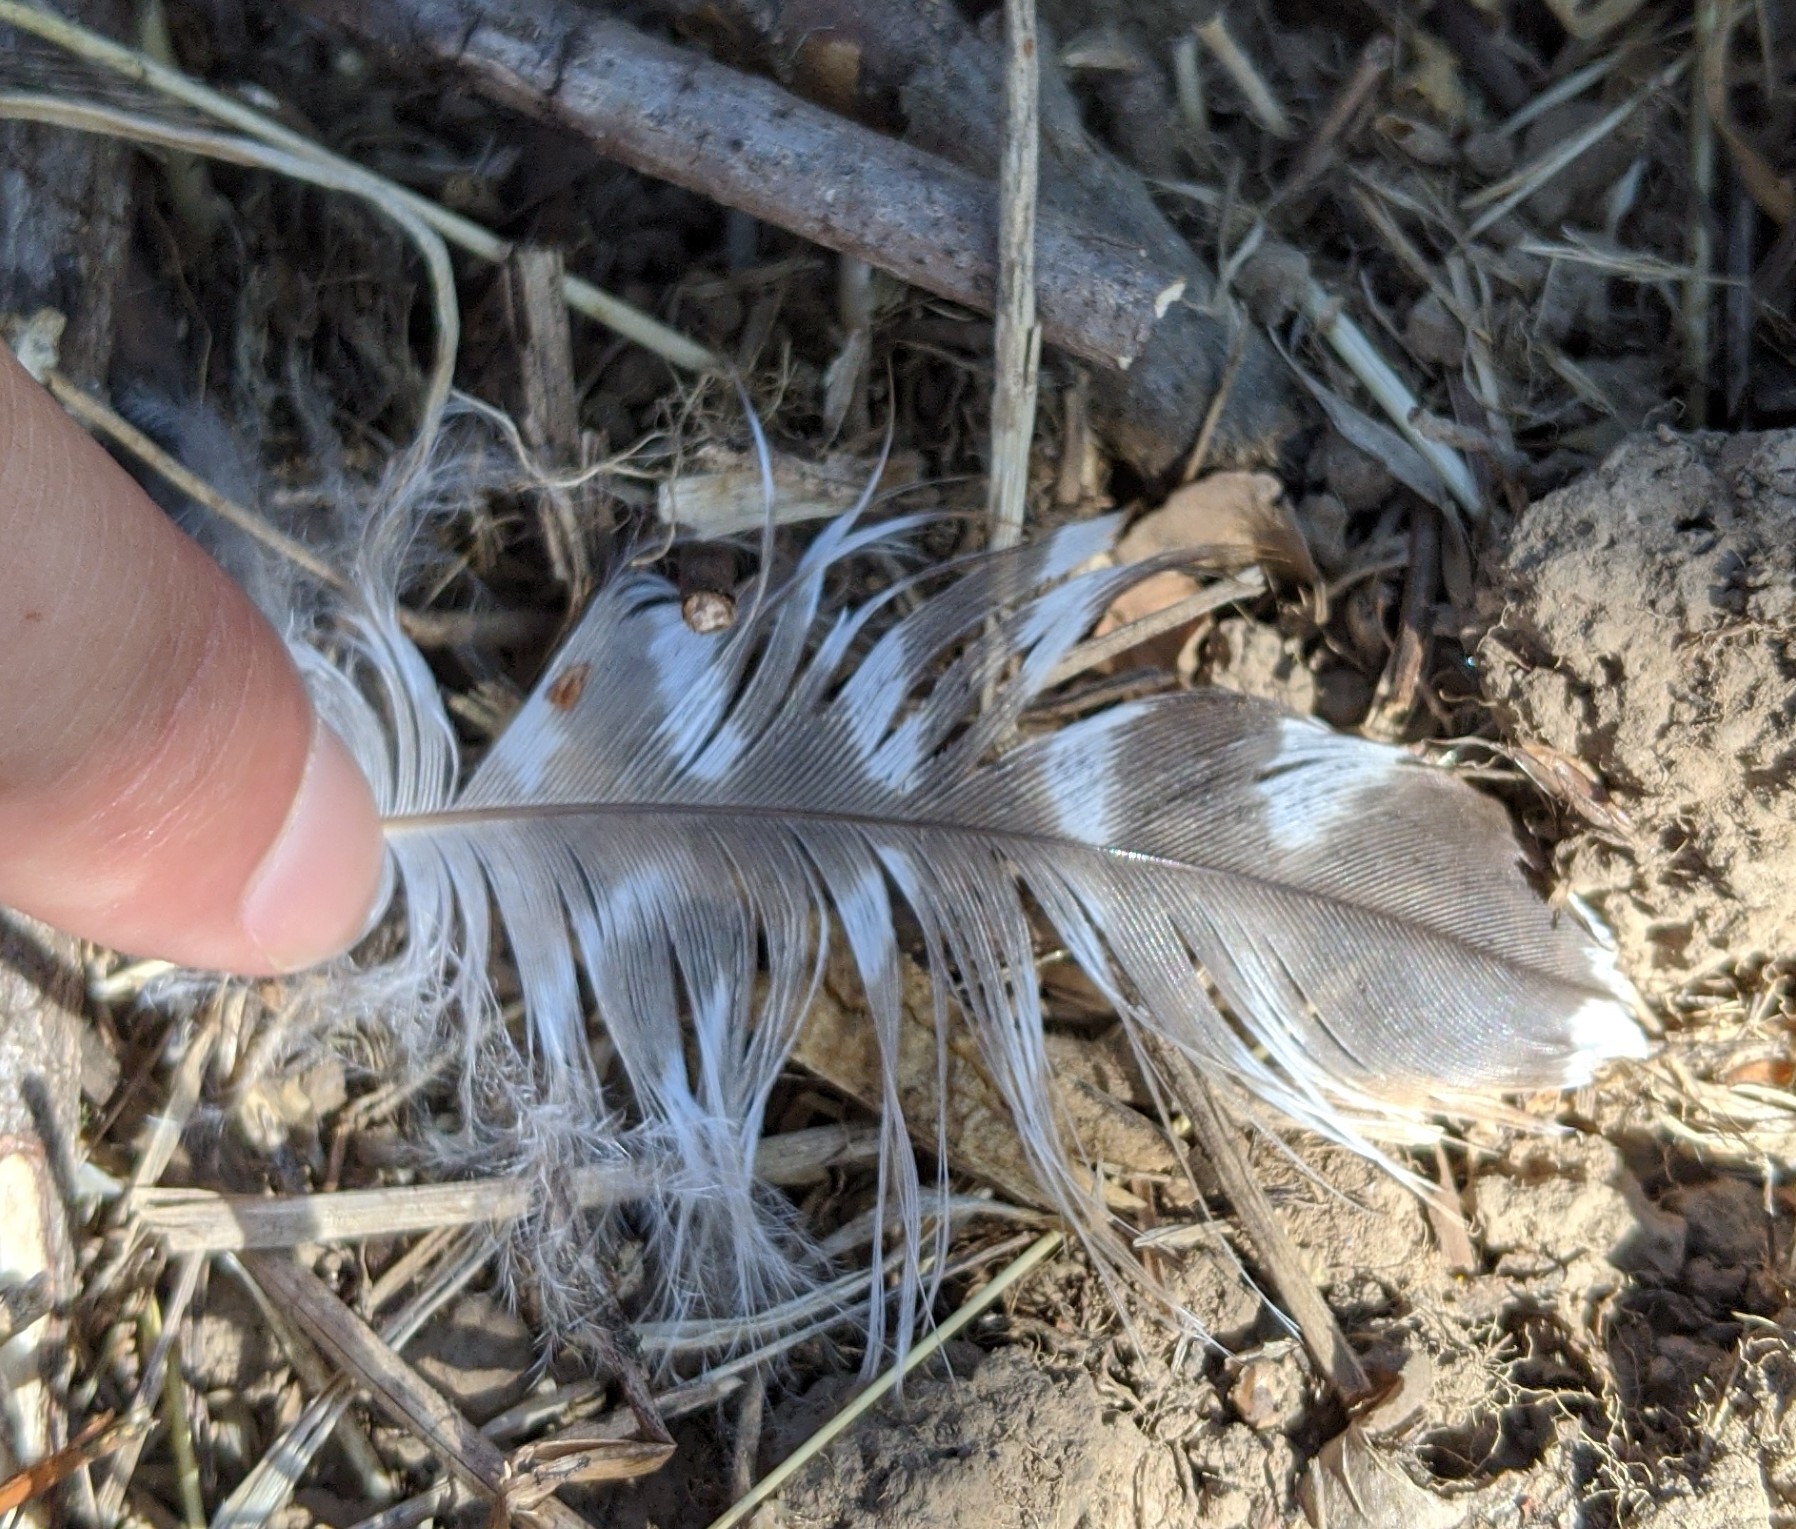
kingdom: Animalia
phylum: Chordata
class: Aves
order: Accipitriformes
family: Accipitridae
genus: Buteo
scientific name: Buteo lineatus
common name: Red-shouldered hawk
